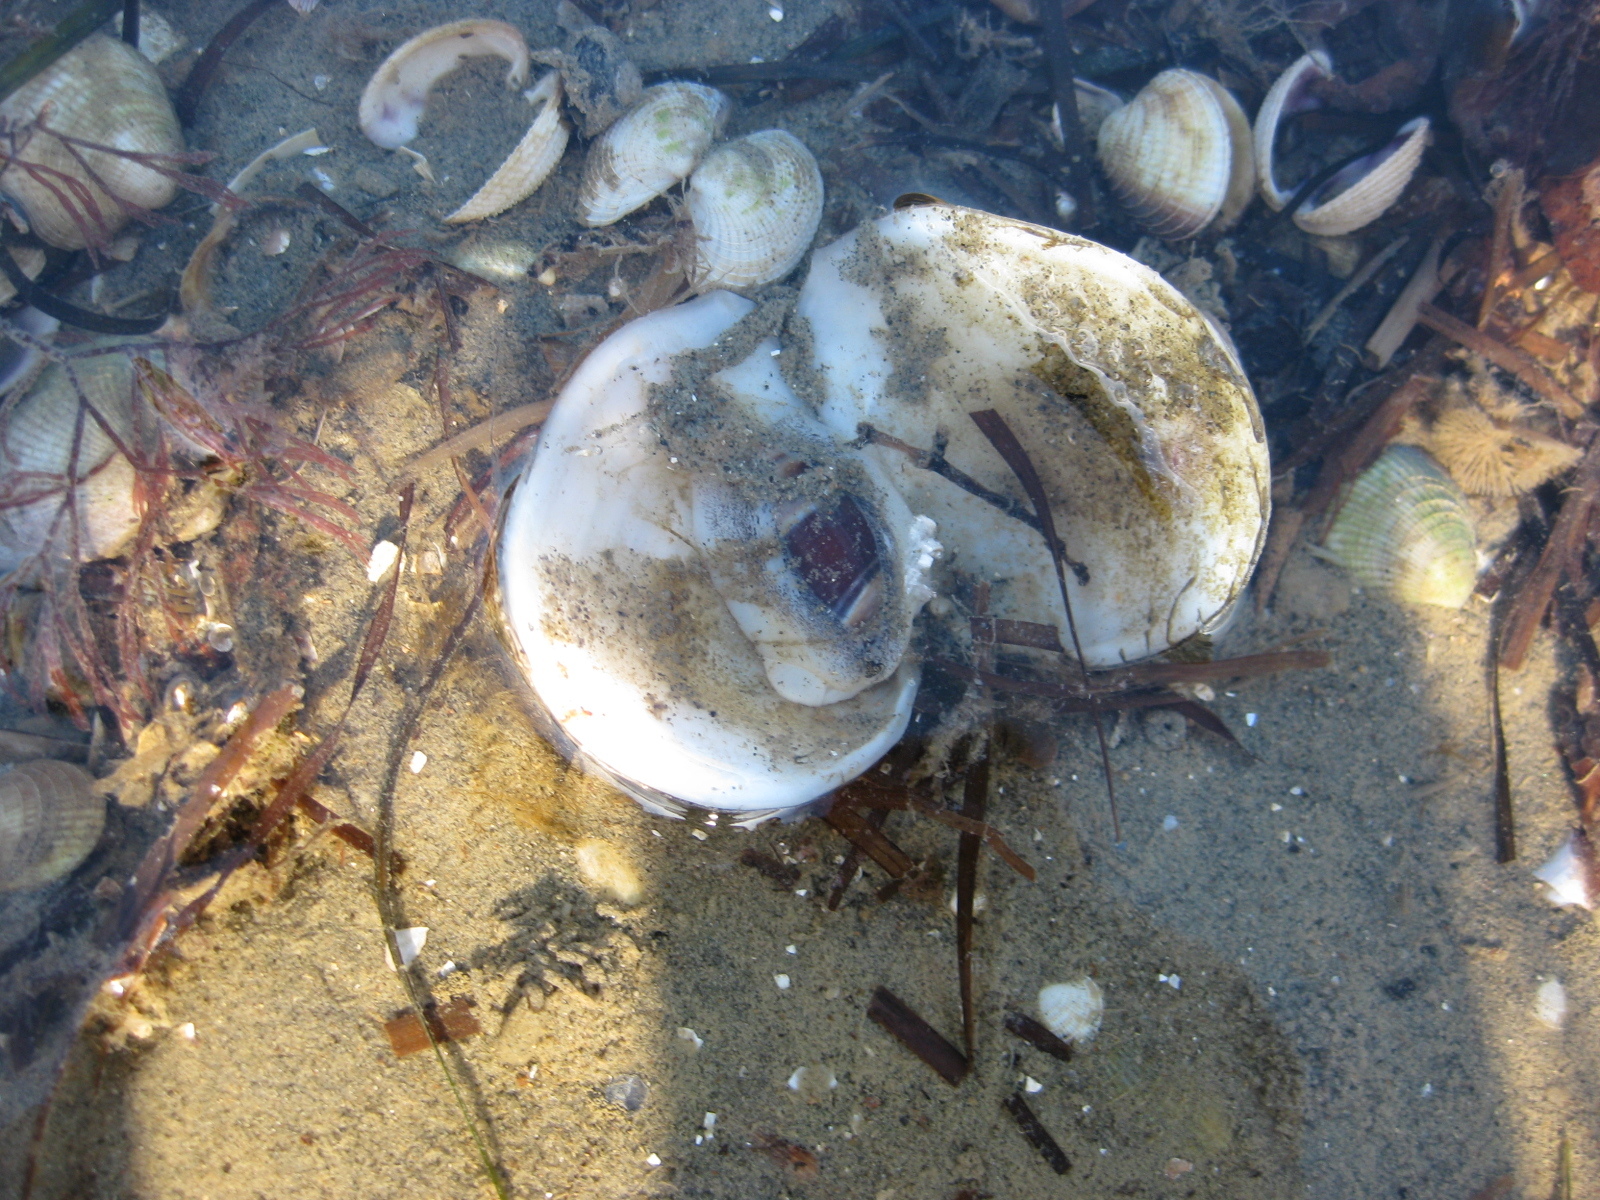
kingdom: Animalia
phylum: Mollusca
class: Bivalvia
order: Cardiida
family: Tellinidae
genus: Macomona
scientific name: Macomona liliana
